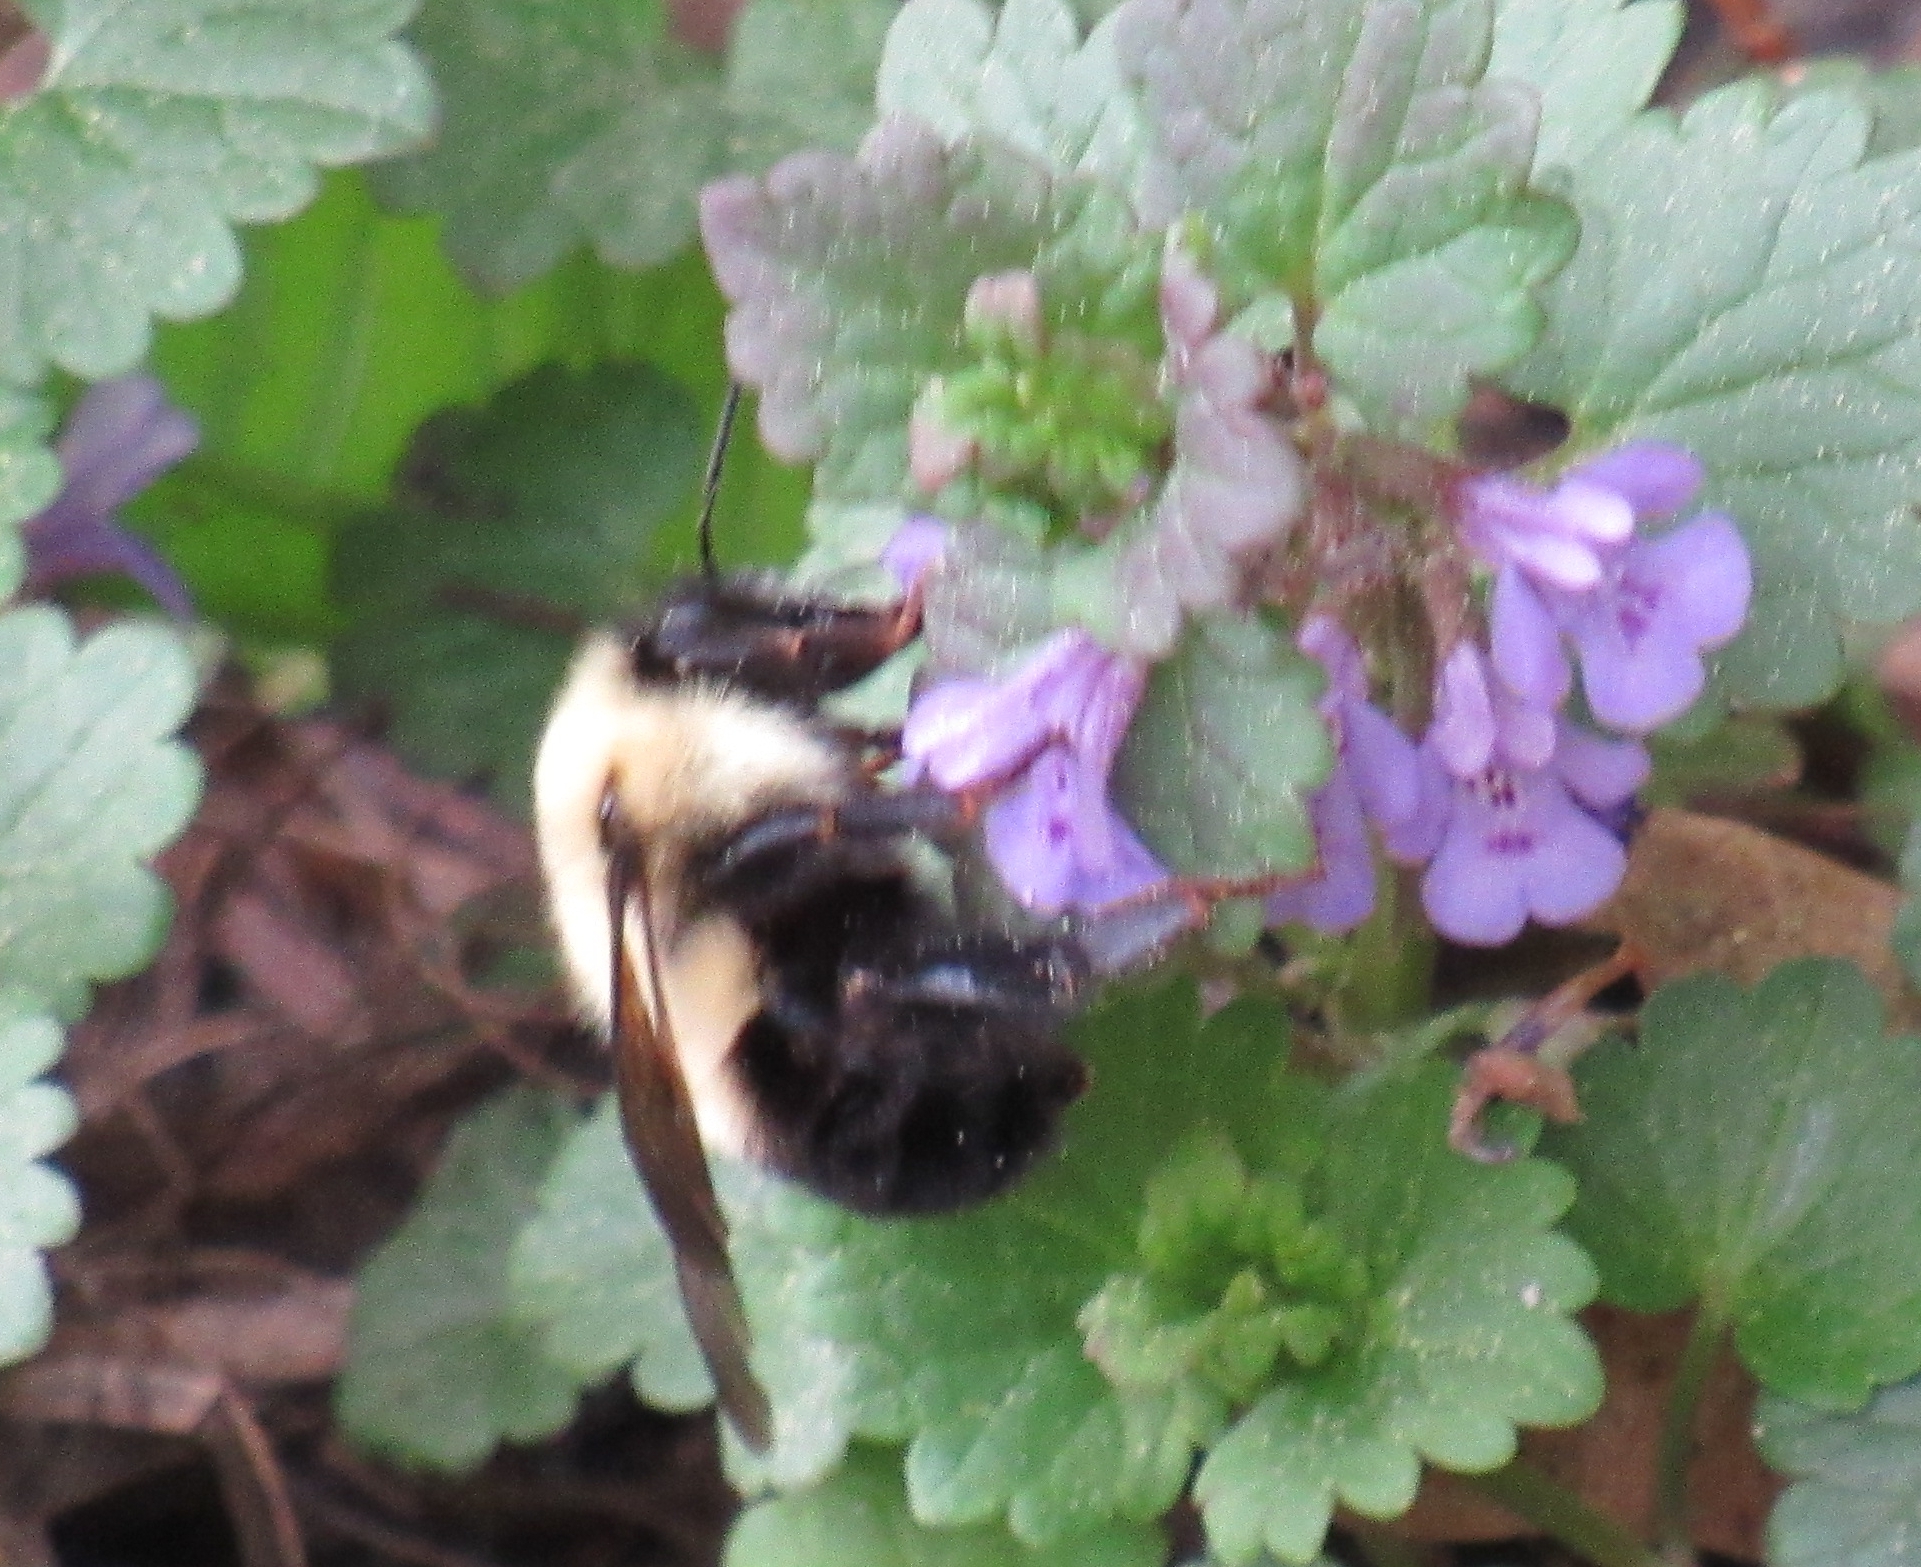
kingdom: Animalia
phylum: Arthropoda
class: Insecta
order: Hymenoptera
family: Apidae
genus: Bombus
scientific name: Bombus bimaculatus
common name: Two-spotted bumble bee
